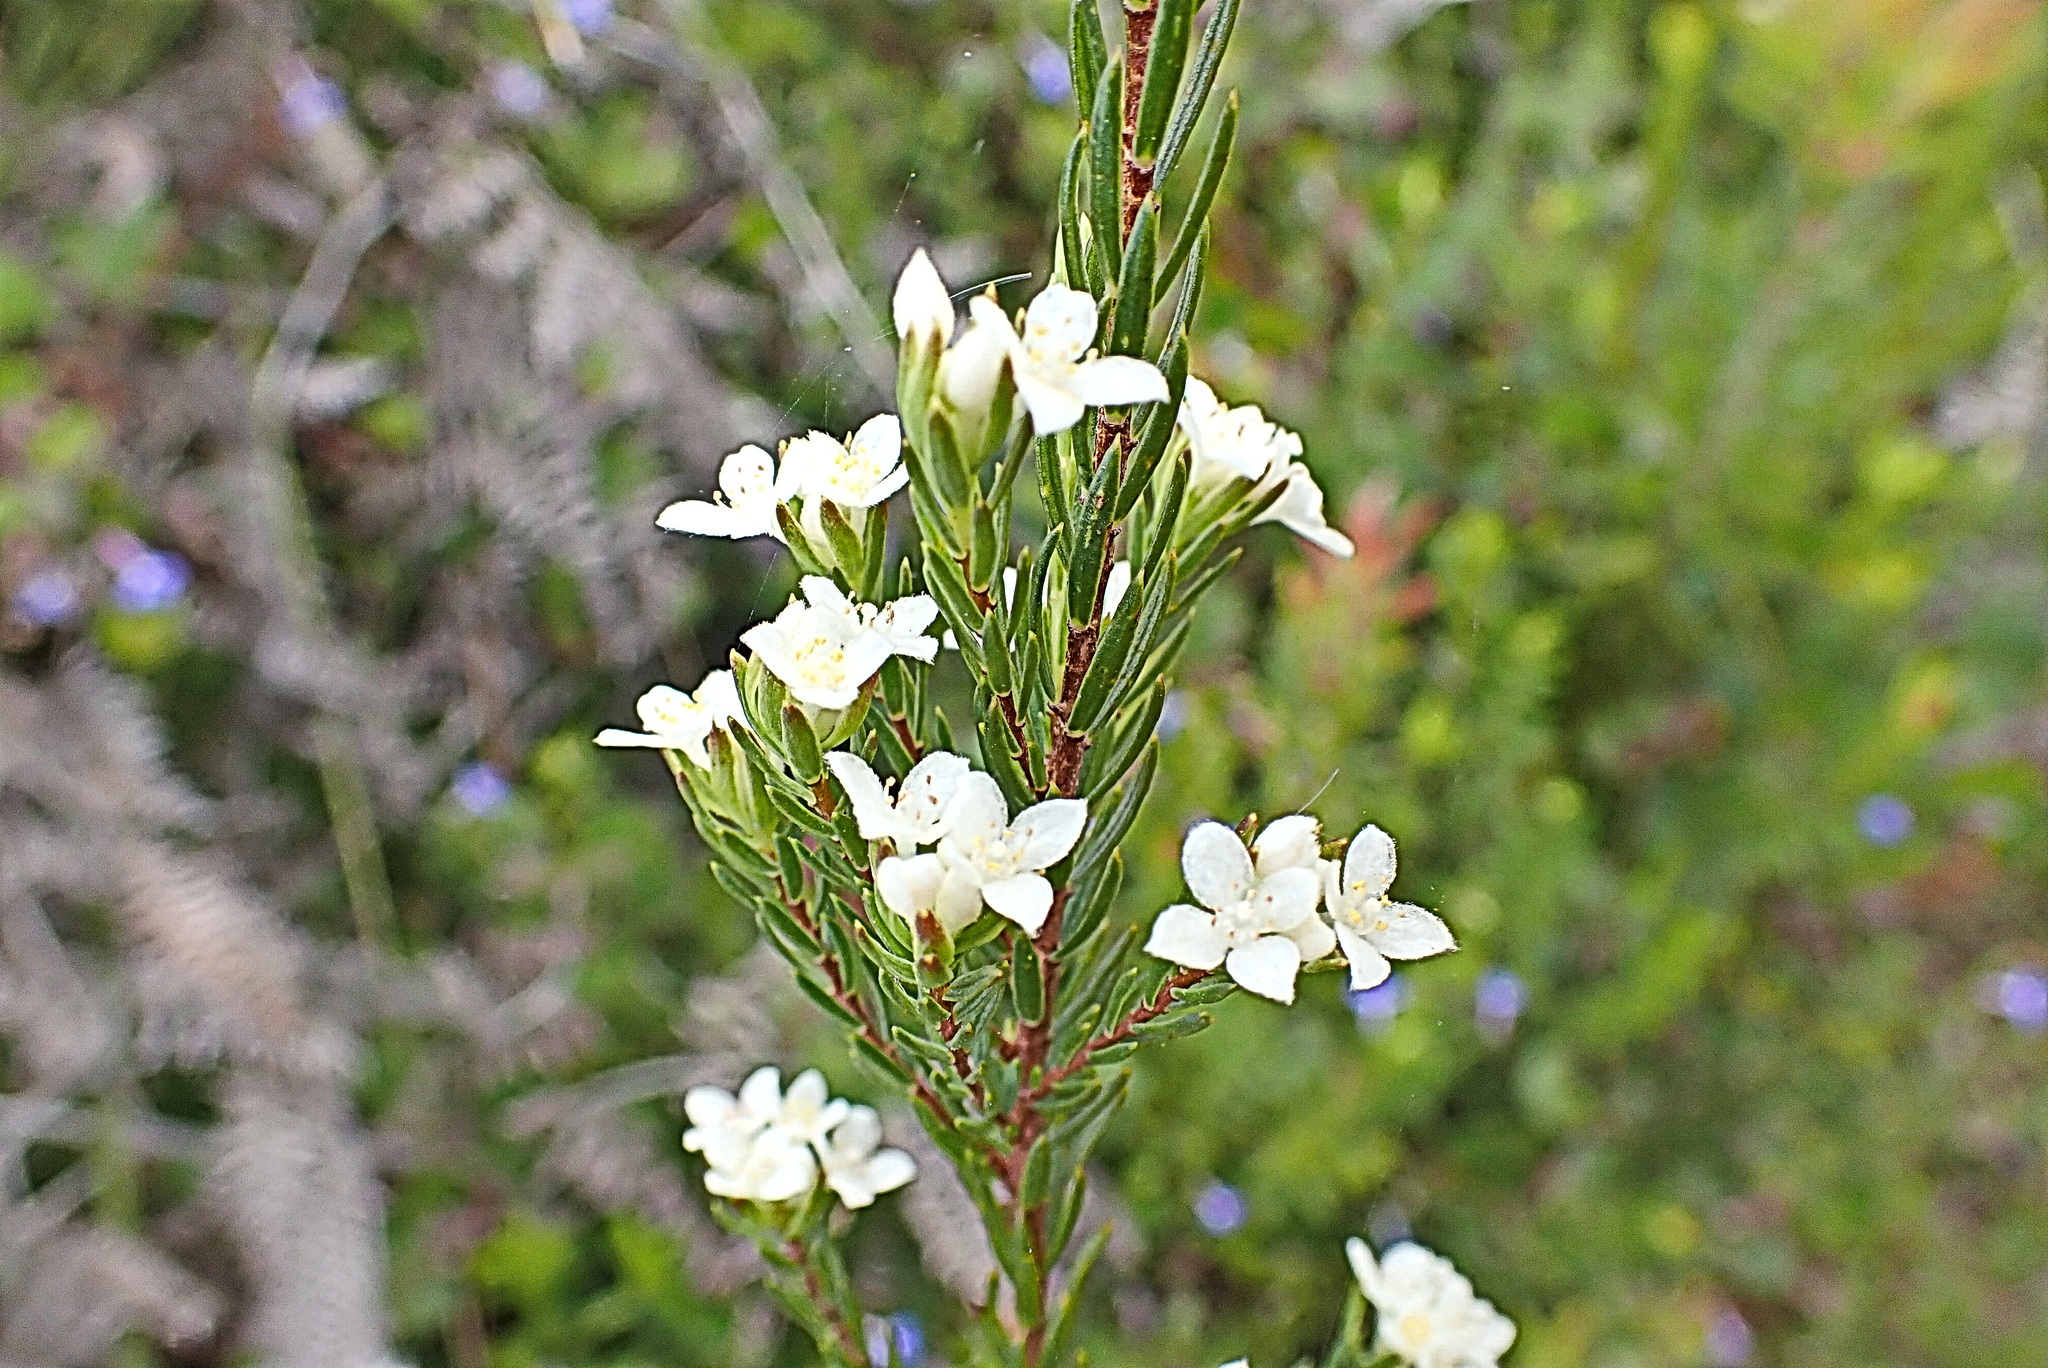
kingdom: Plantae
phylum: Tracheophyta
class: Magnoliopsida
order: Malvales
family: Thymelaeaceae
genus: Lachnaea
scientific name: Lachnaea diosmoides
